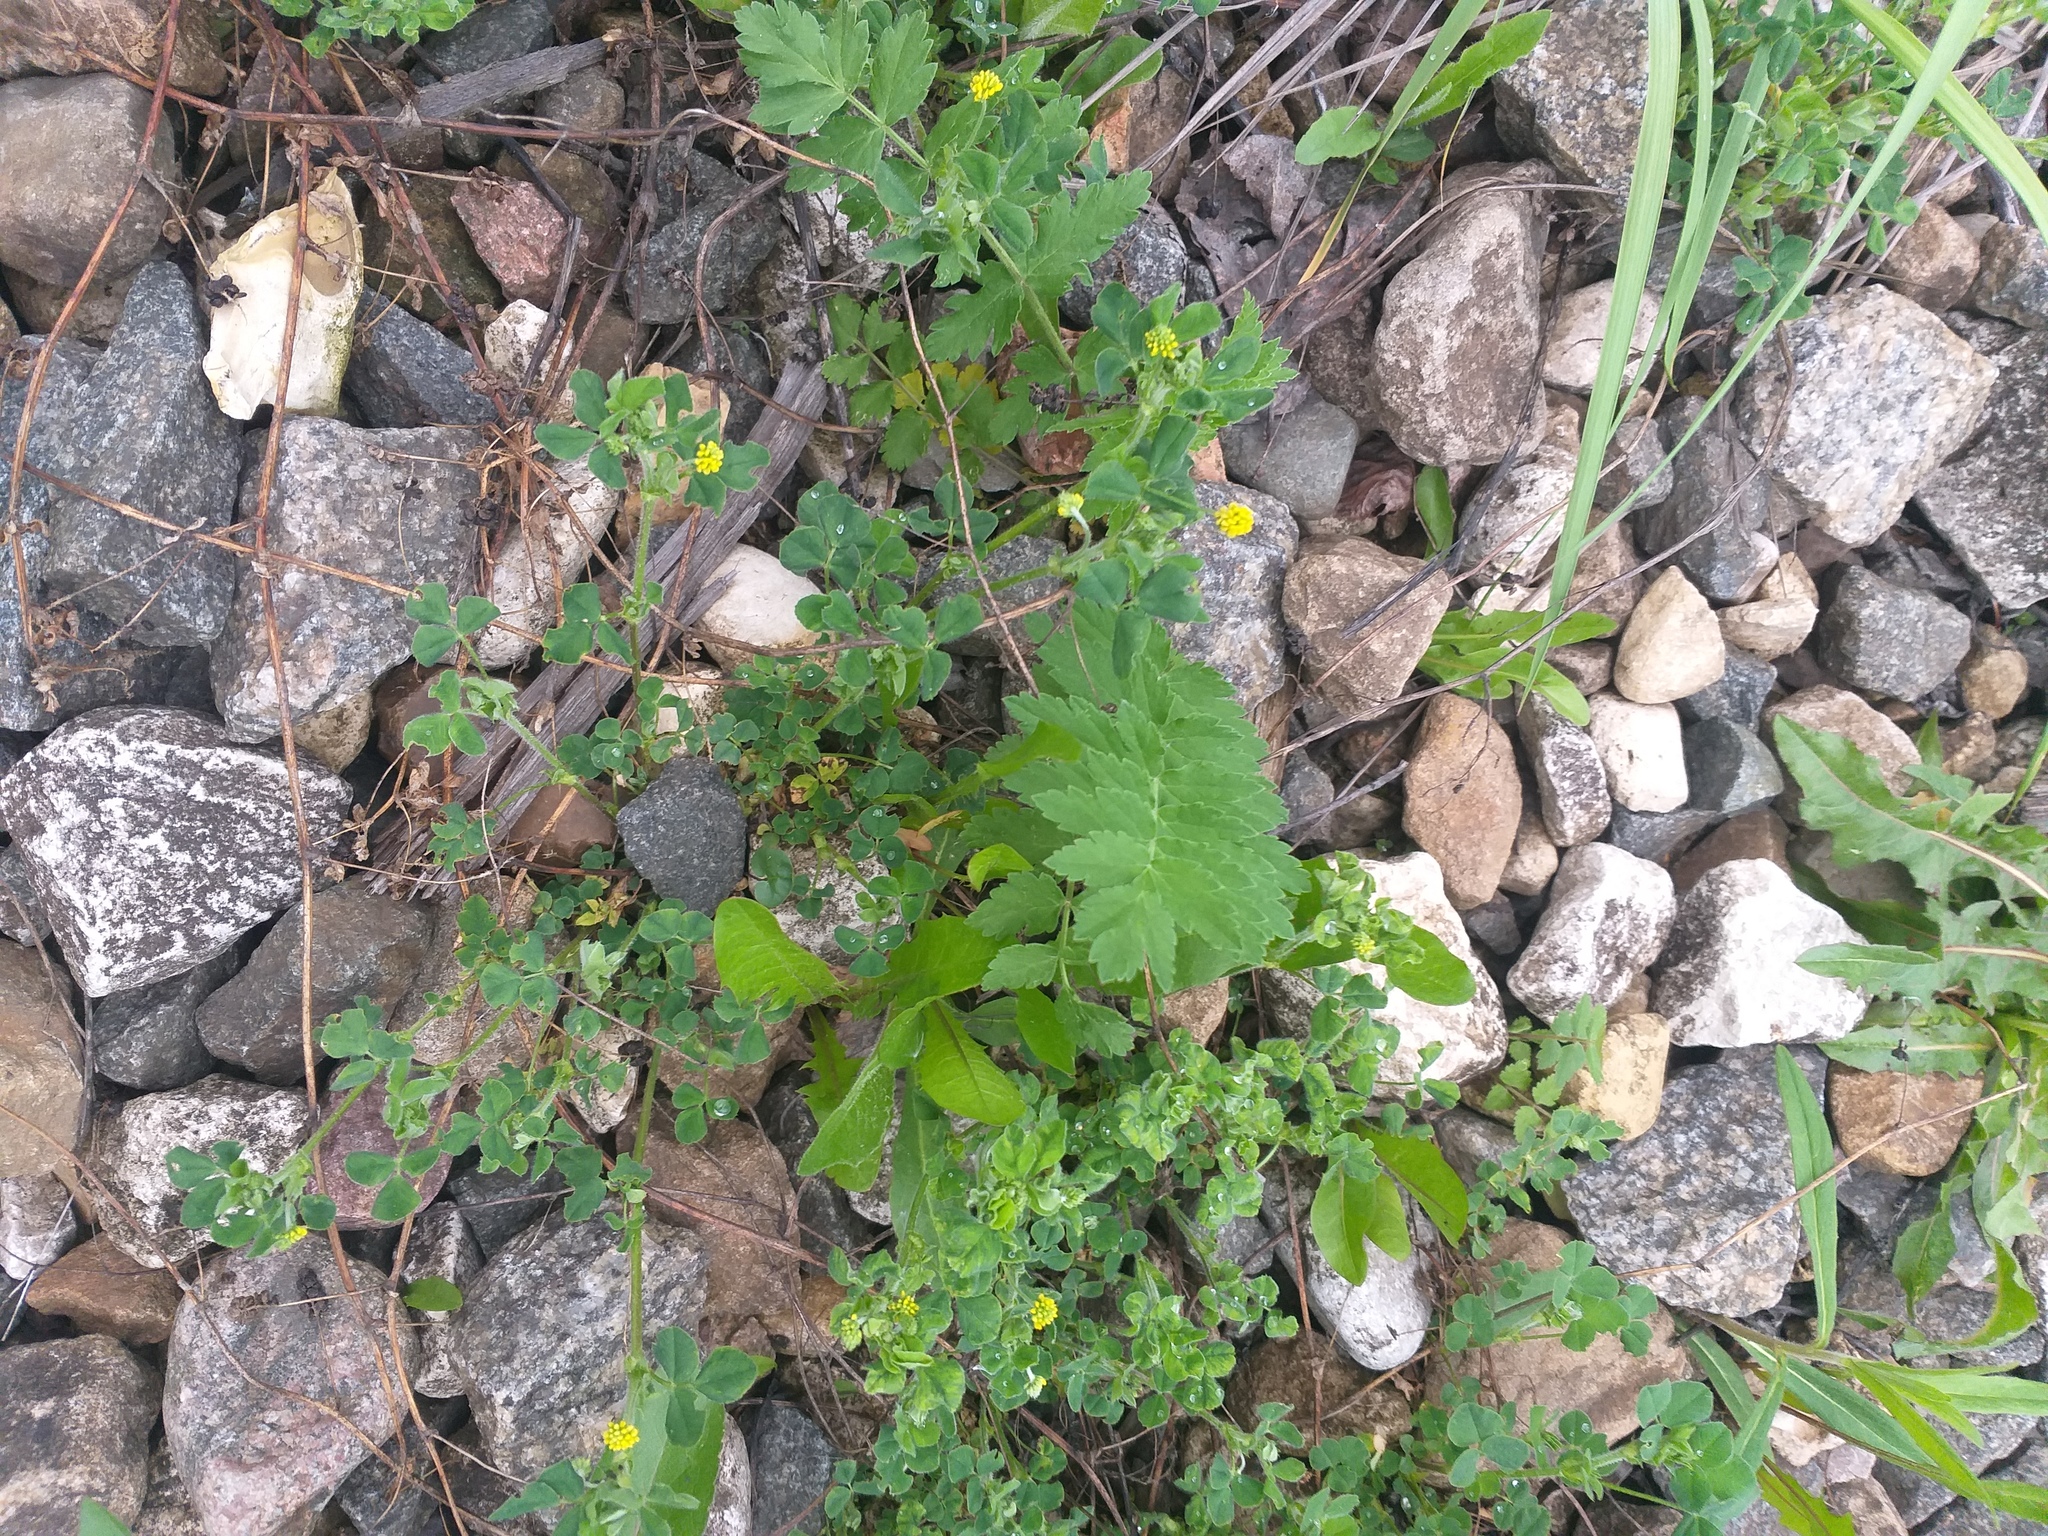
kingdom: Plantae
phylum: Tracheophyta
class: Magnoliopsida
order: Fabales
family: Fabaceae
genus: Medicago
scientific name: Medicago lupulina
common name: Black medick
